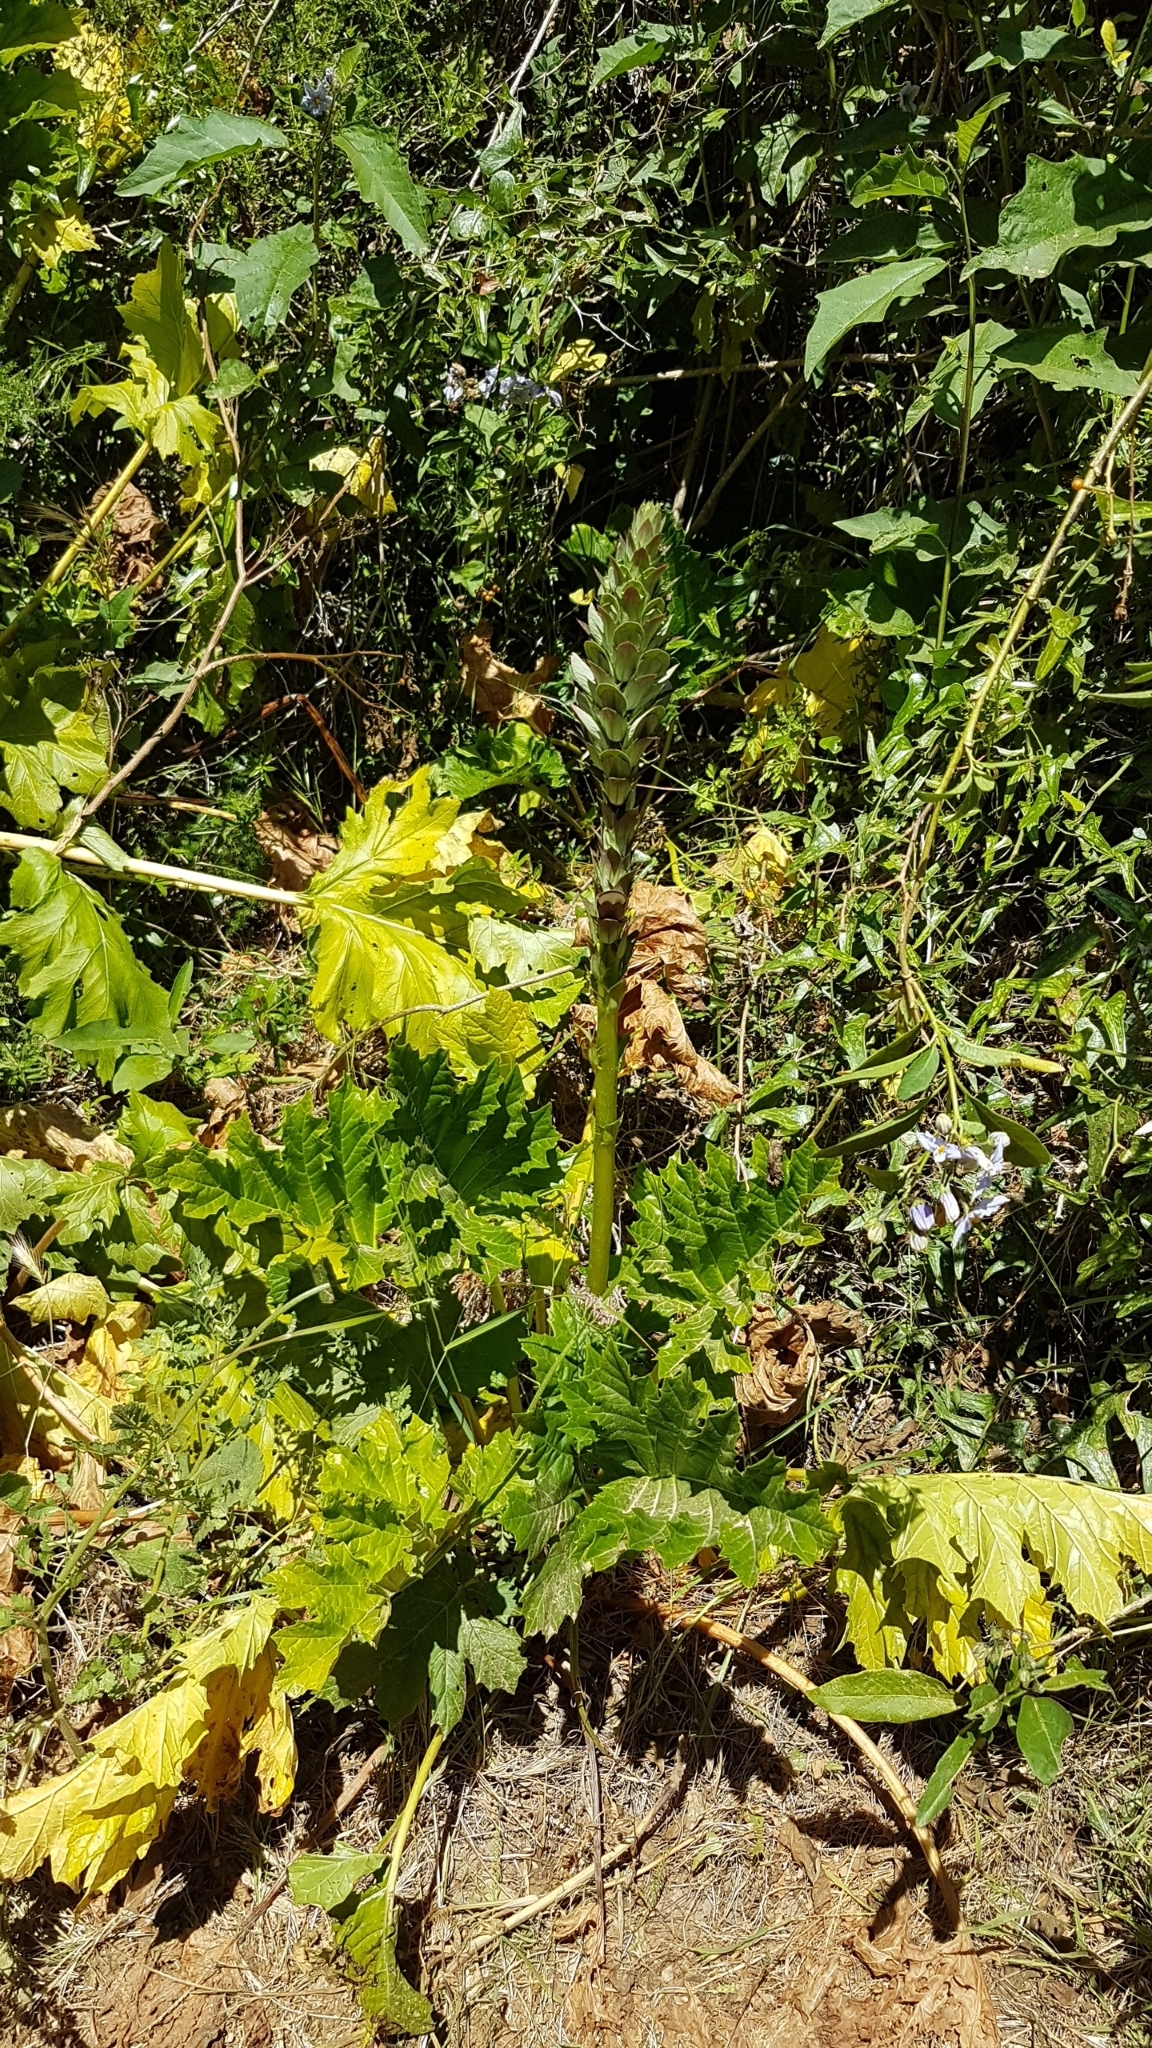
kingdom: Plantae
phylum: Tracheophyta
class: Magnoliopsida
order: Lamiales
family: Acanthaceae
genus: Acanthus
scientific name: Acanthus mollis
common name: Bear's-breech
